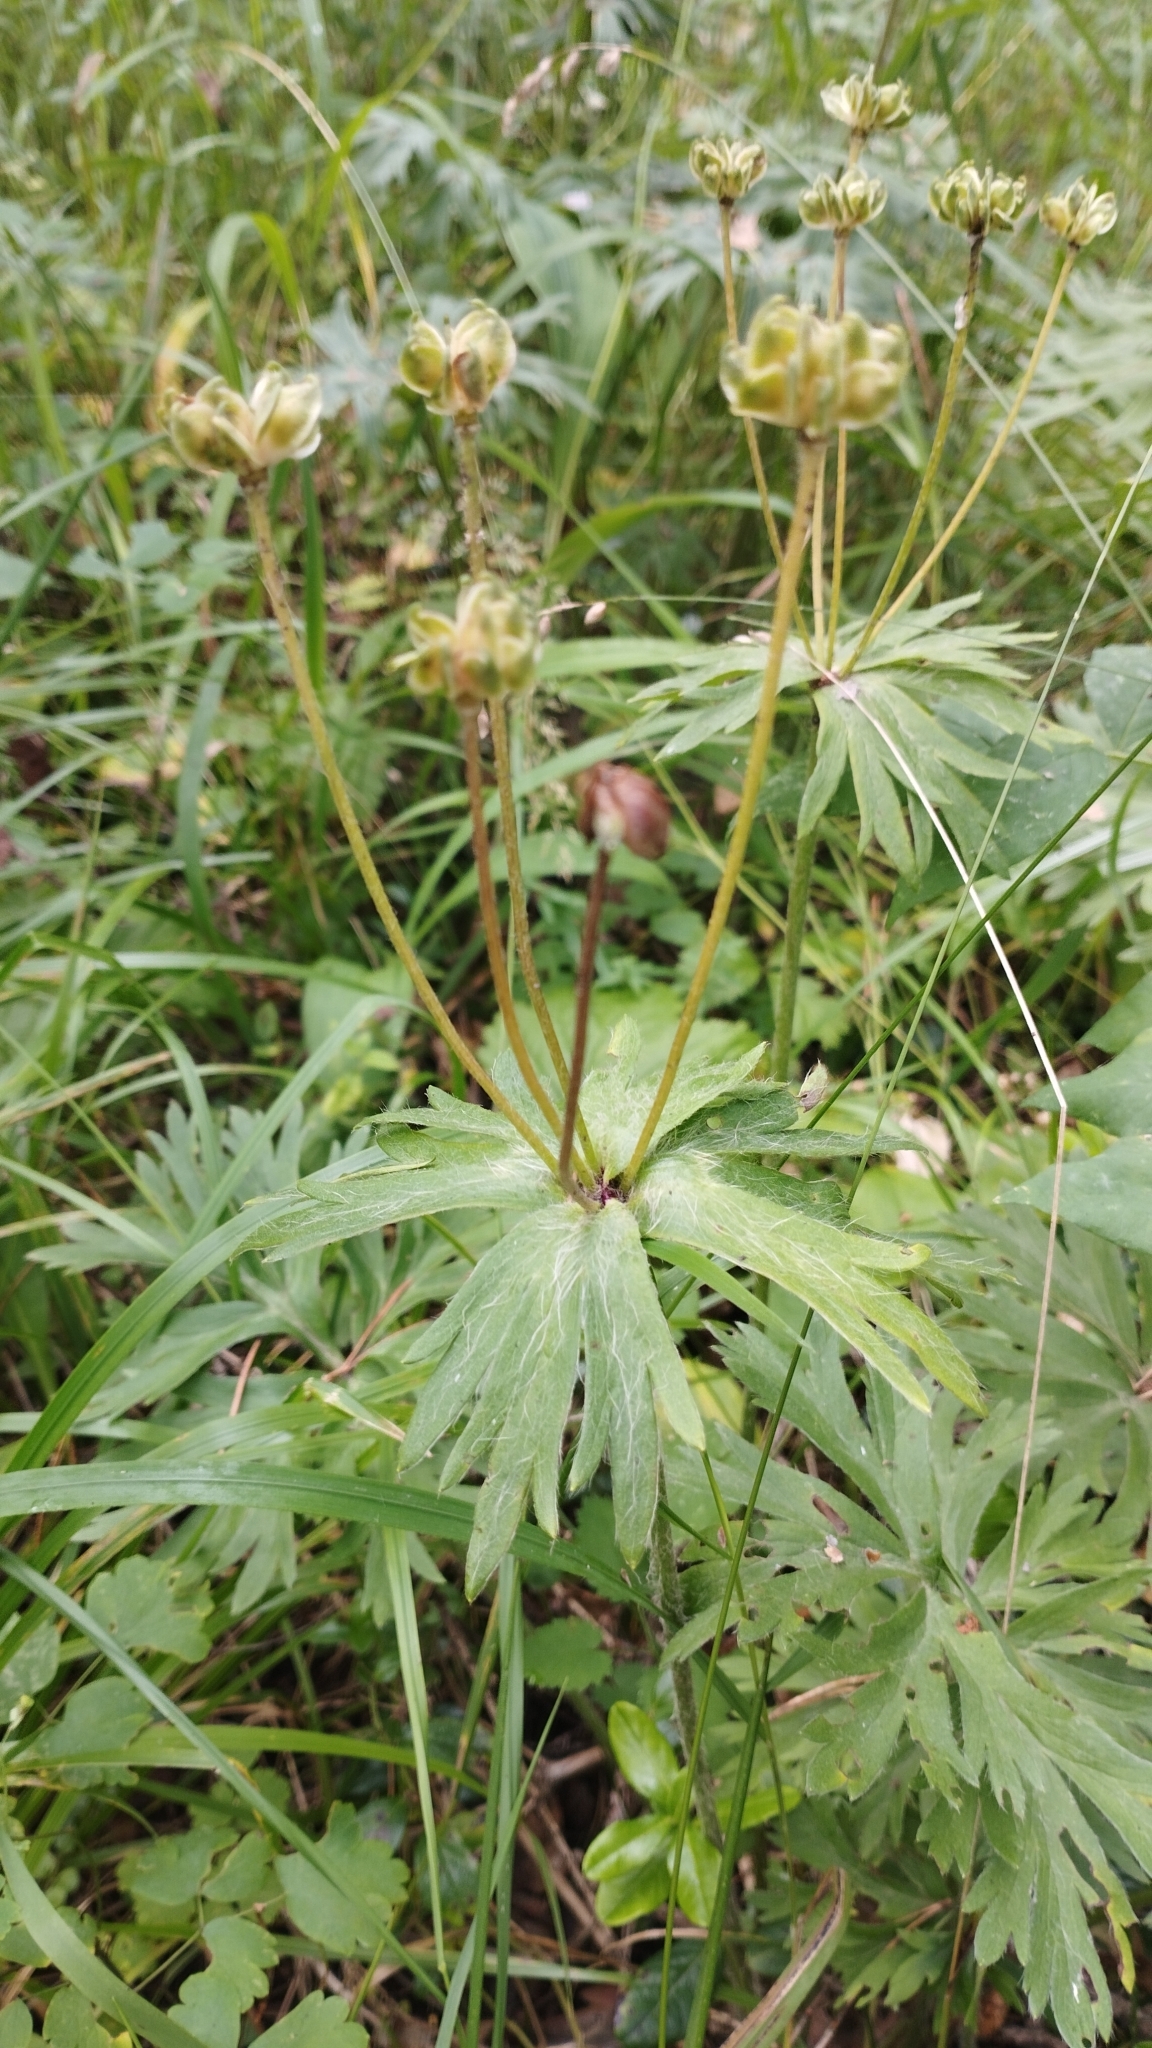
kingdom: Plantae
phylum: Tracheophyta
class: Magnoliopsida
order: Ranunculales
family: Ranunculaceae
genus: Anemonastrum
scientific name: Anemonastrum narcissiflorum
